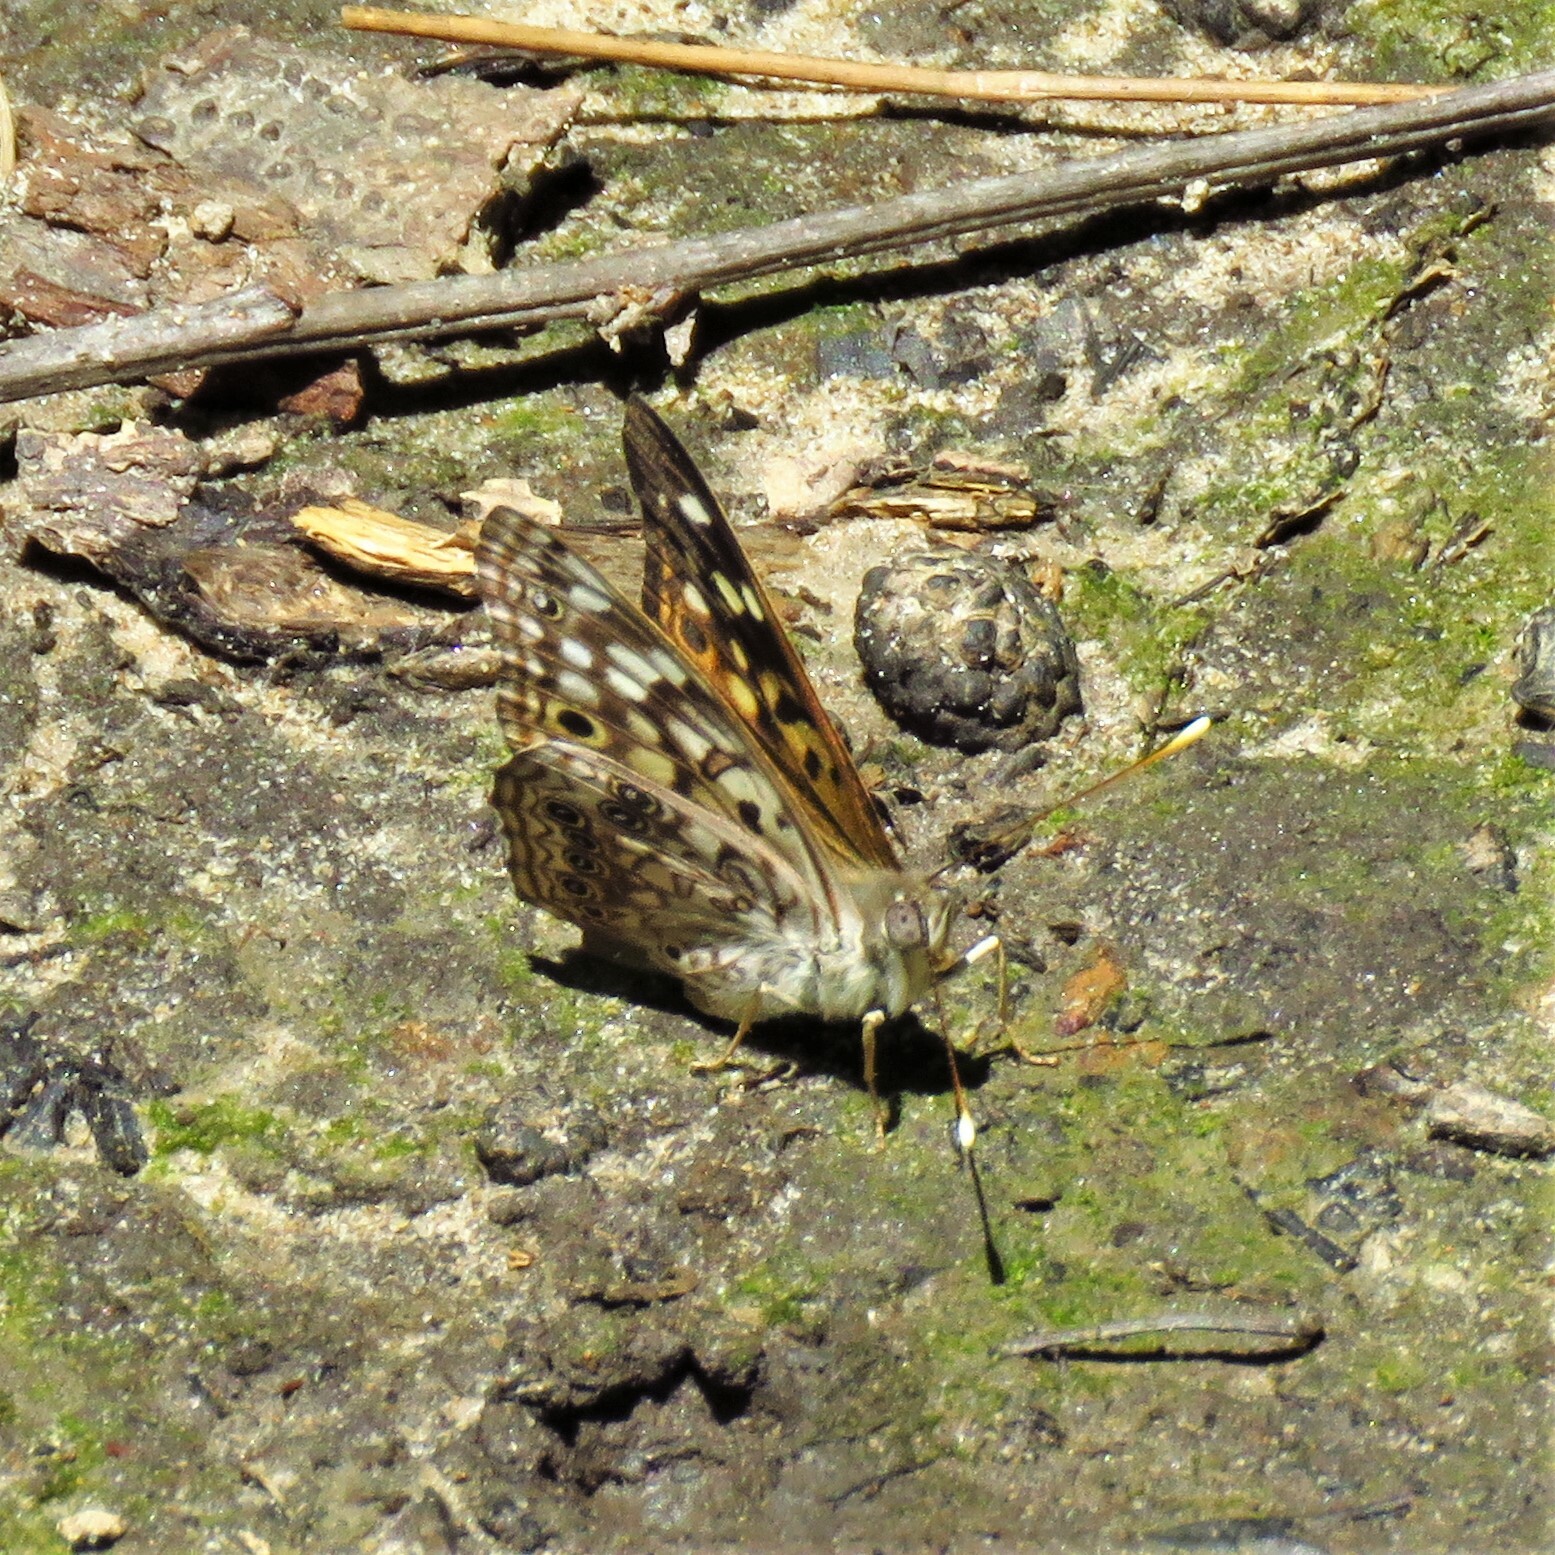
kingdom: Animalia
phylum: Arthropoda
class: Insecta
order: Lepidoptera
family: Nymphalidae
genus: Asterocampa
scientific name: Asterocampa celtis
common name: Hackberry emperor
